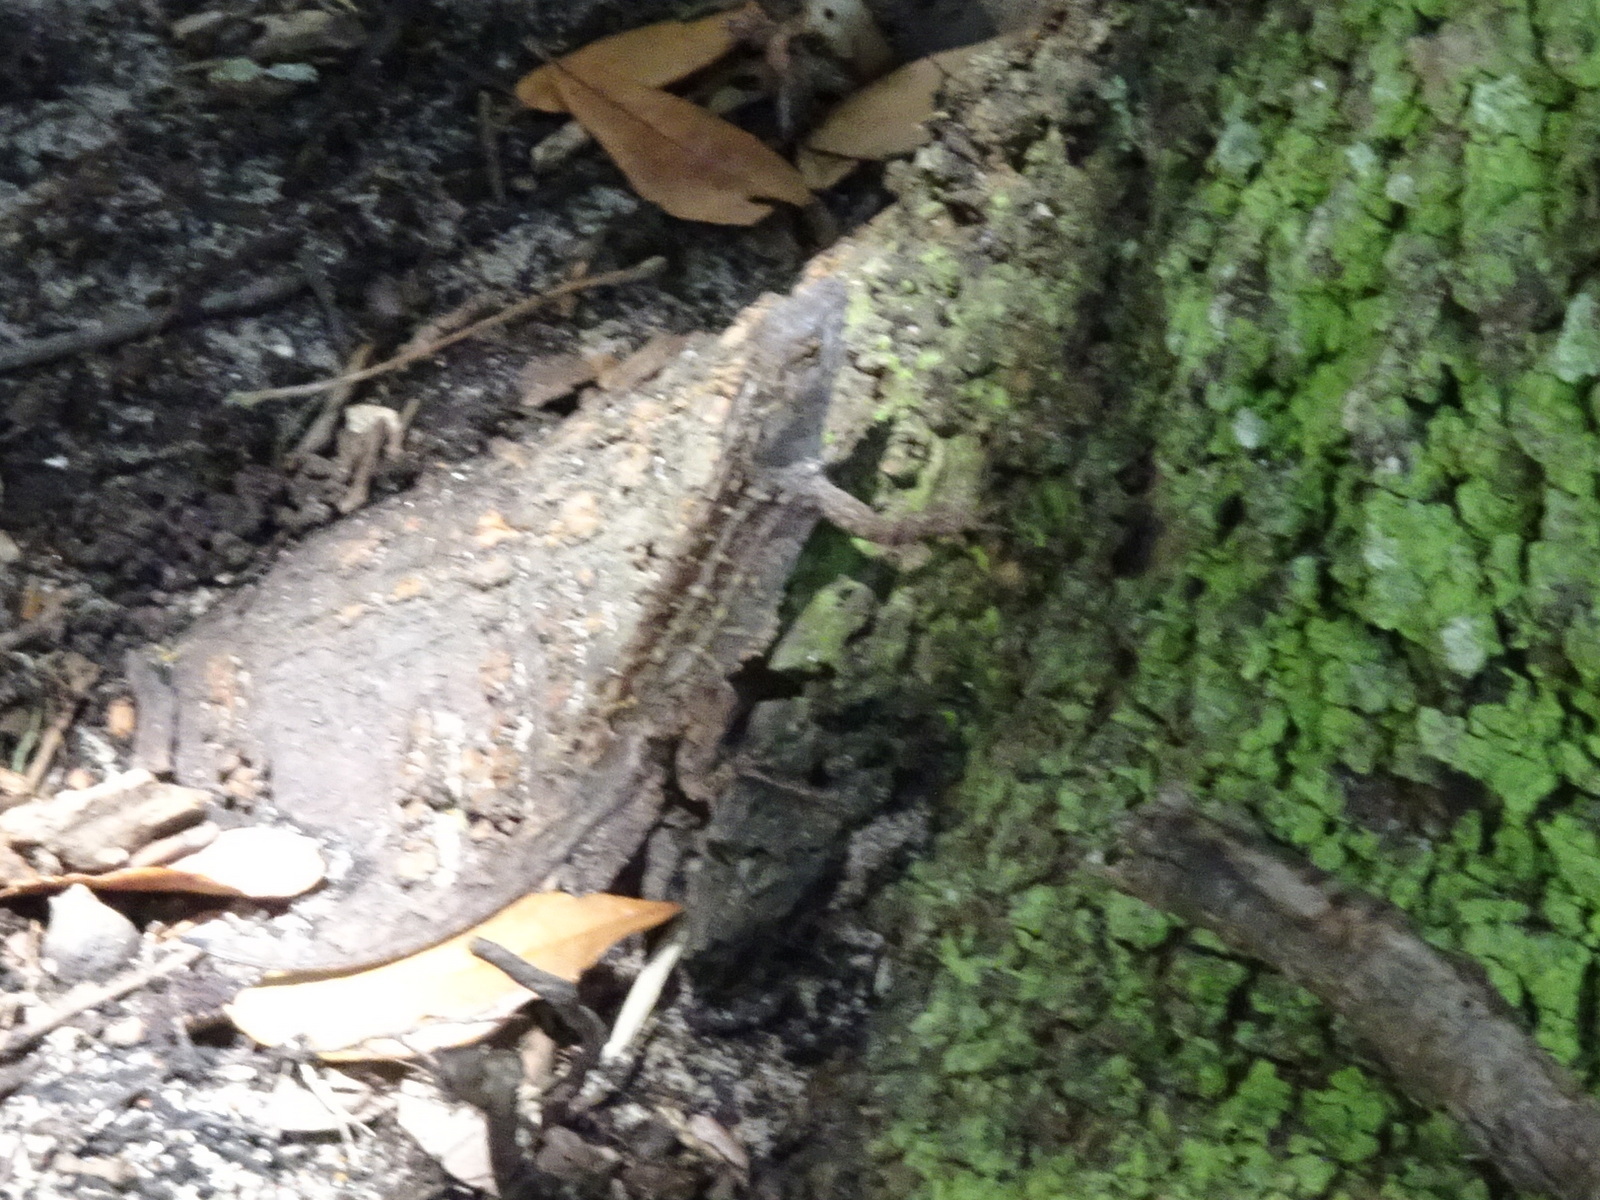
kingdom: Animalia
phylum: Chordata
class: Squamata
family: Dactyloidae
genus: Anolis
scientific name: Anolis sagrei
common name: Brown anole
